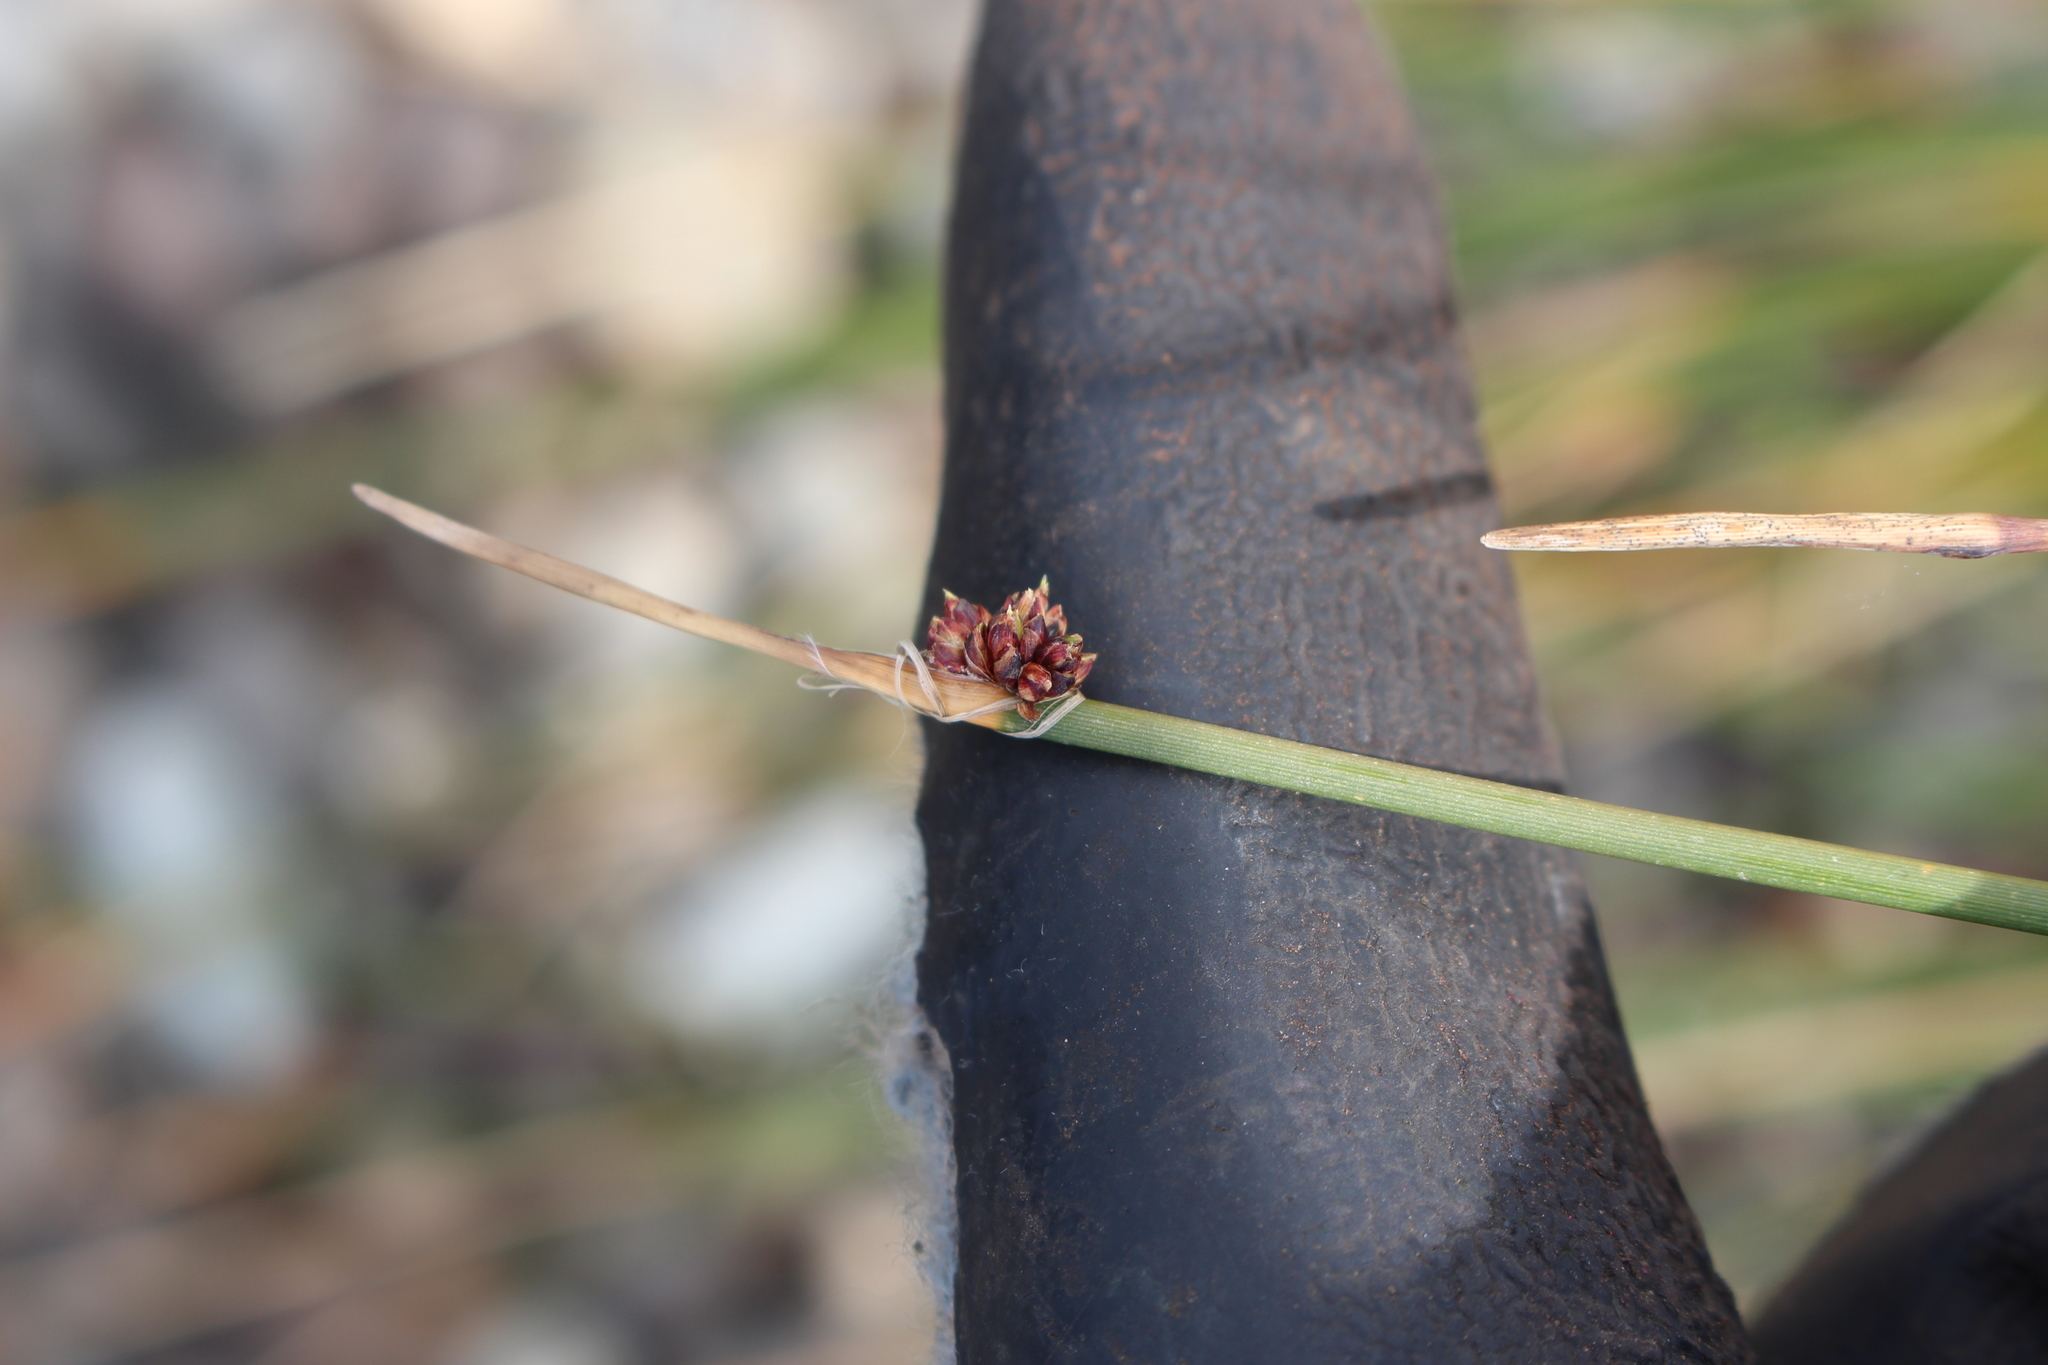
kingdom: Plantae
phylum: Tracheophyta
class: Liliopsida
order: Poales
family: Cyperaceae
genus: Ficinia
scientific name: Ficinia nodosa
